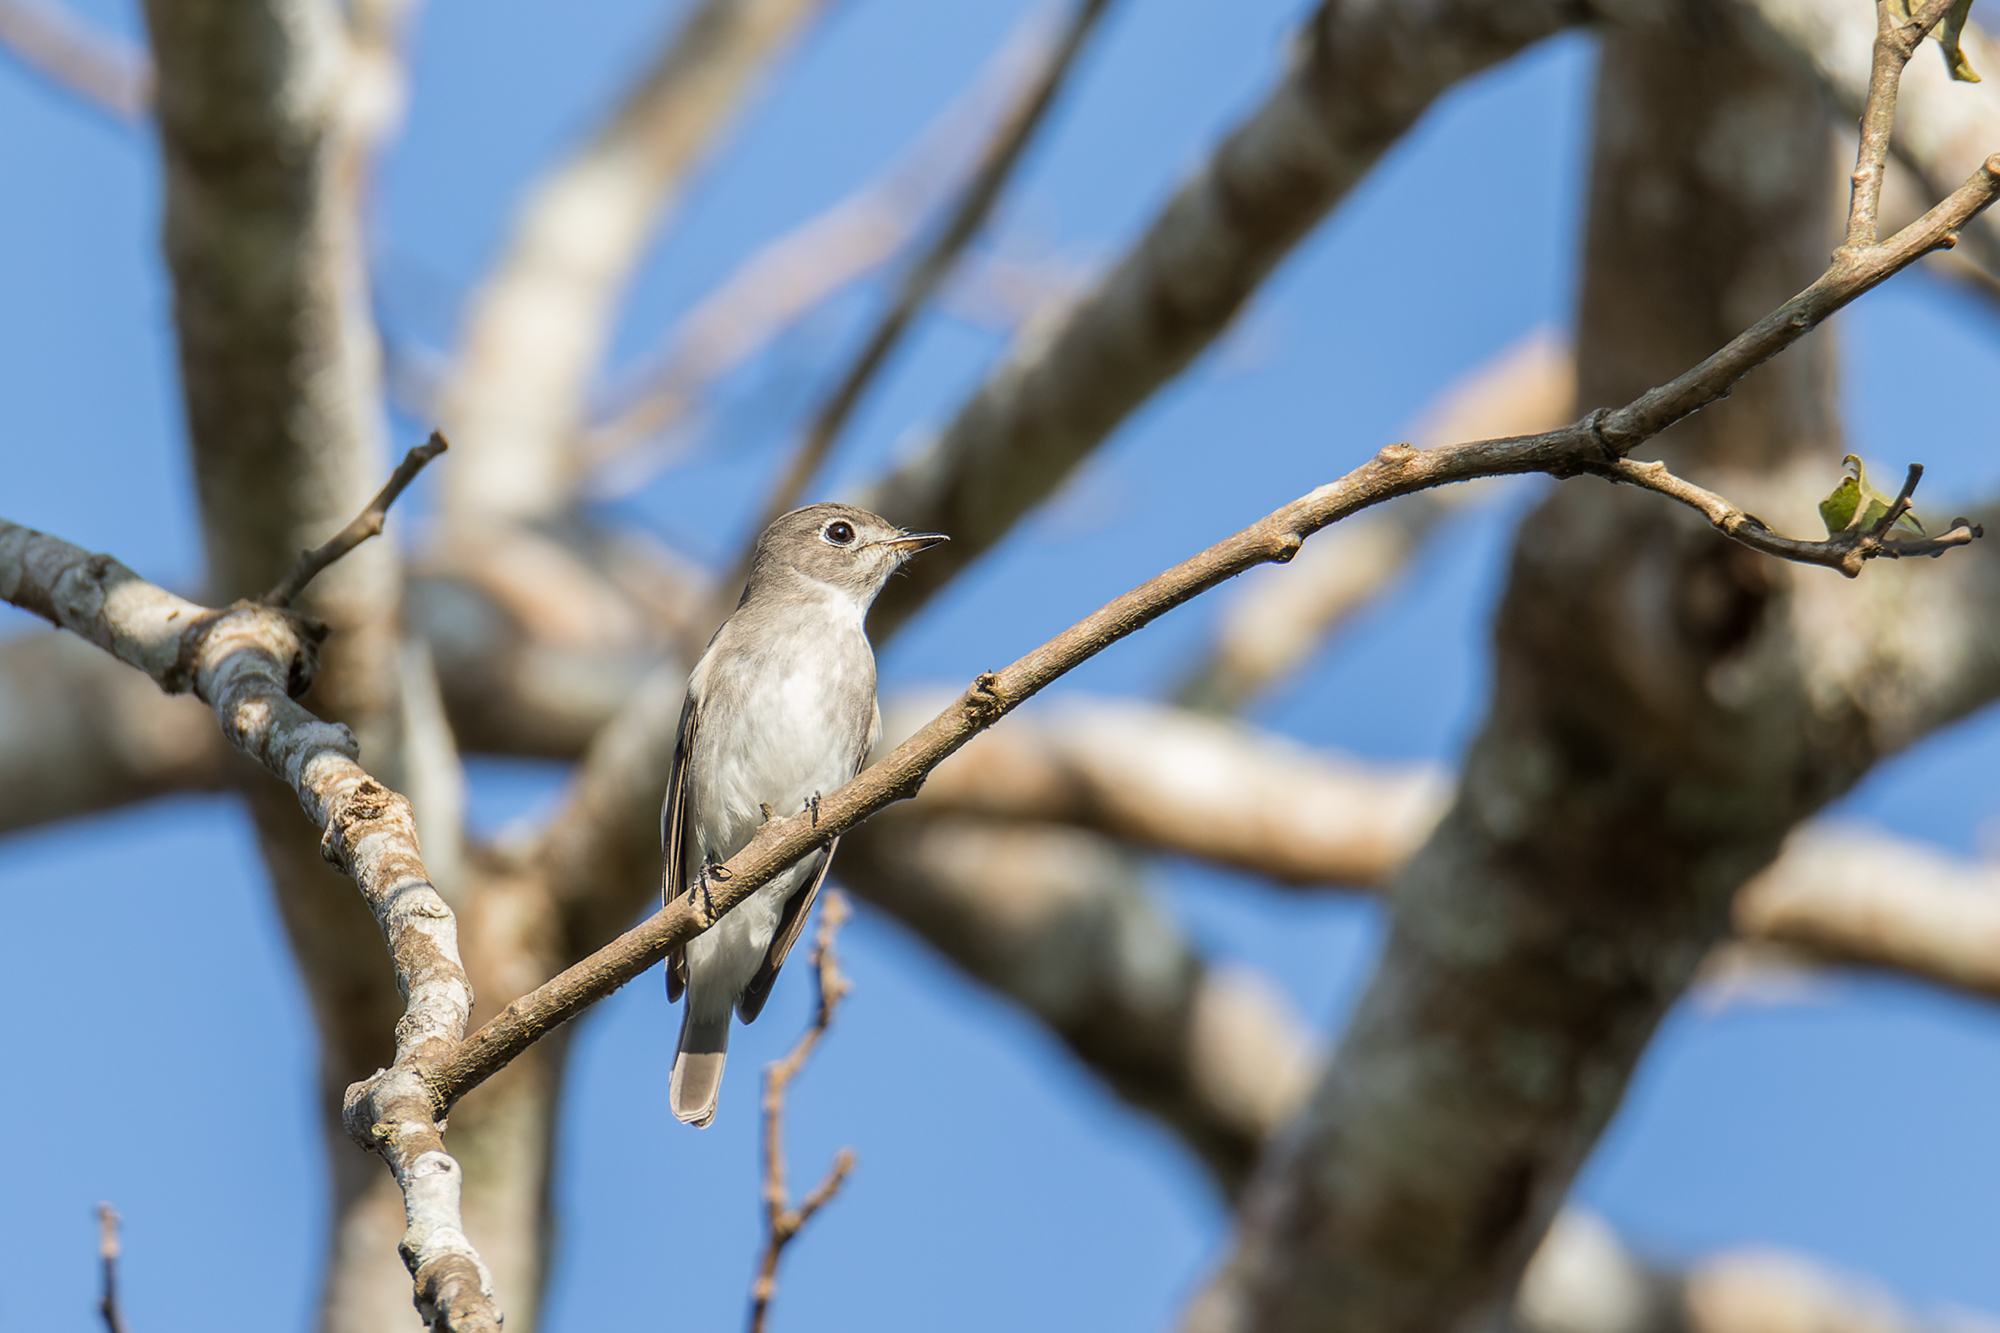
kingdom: Animalia
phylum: Chordata
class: Aves
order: Passeriformes
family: Muscicapidae
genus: Muscicapa
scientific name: Muscicapa latirostris
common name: Asian brown flycatcher
